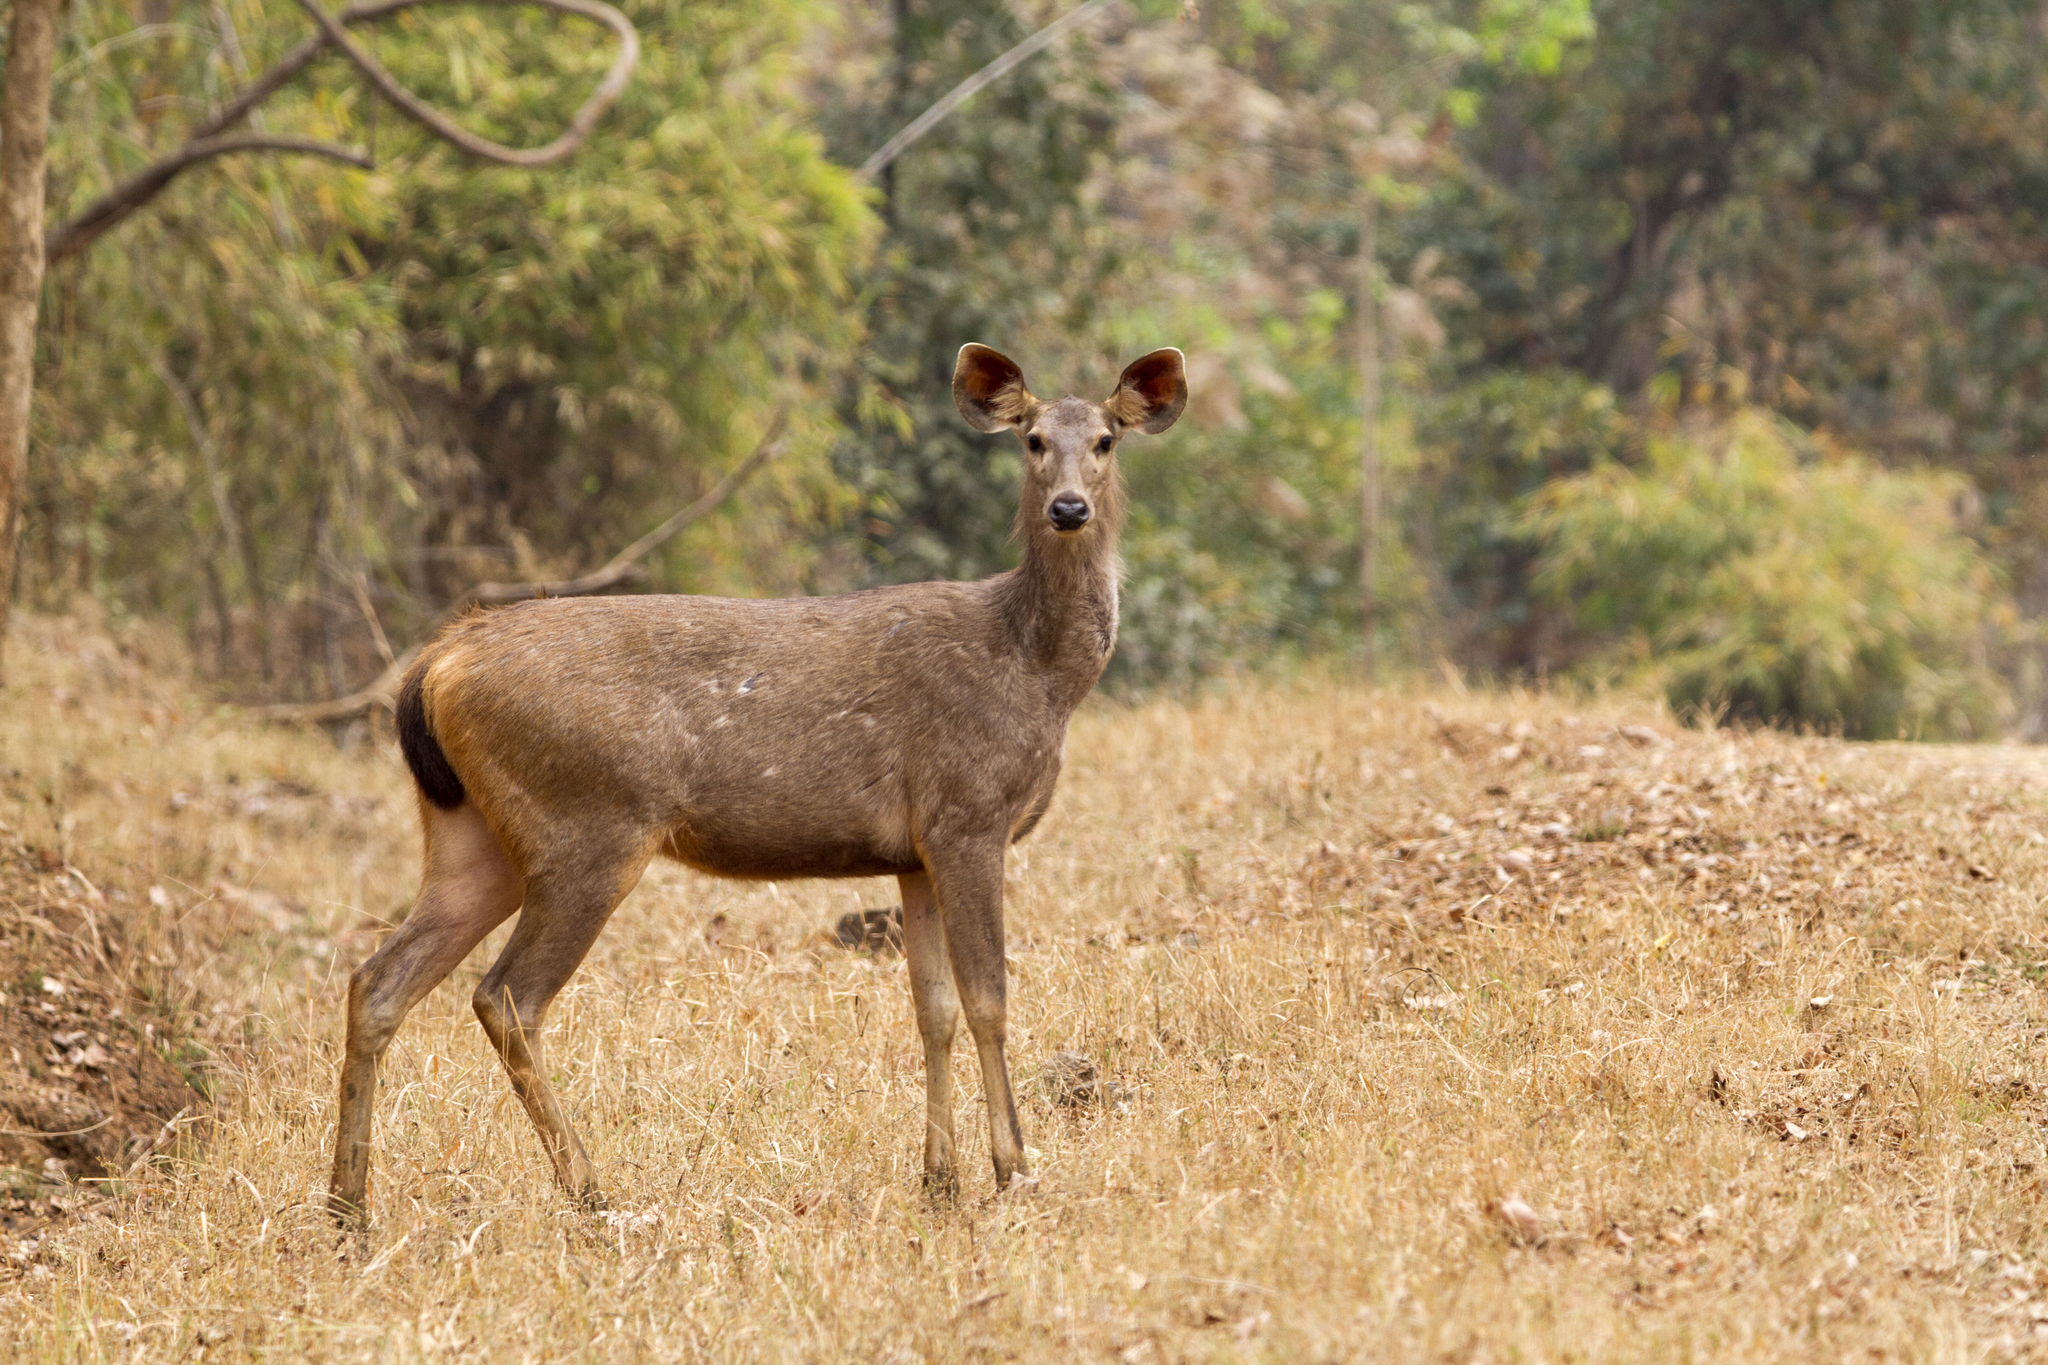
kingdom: Animalia
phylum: Chordata
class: Mammalia
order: Artiodactyla
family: Cervidae
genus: Rusa
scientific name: Rusa unicolor
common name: Sambar
